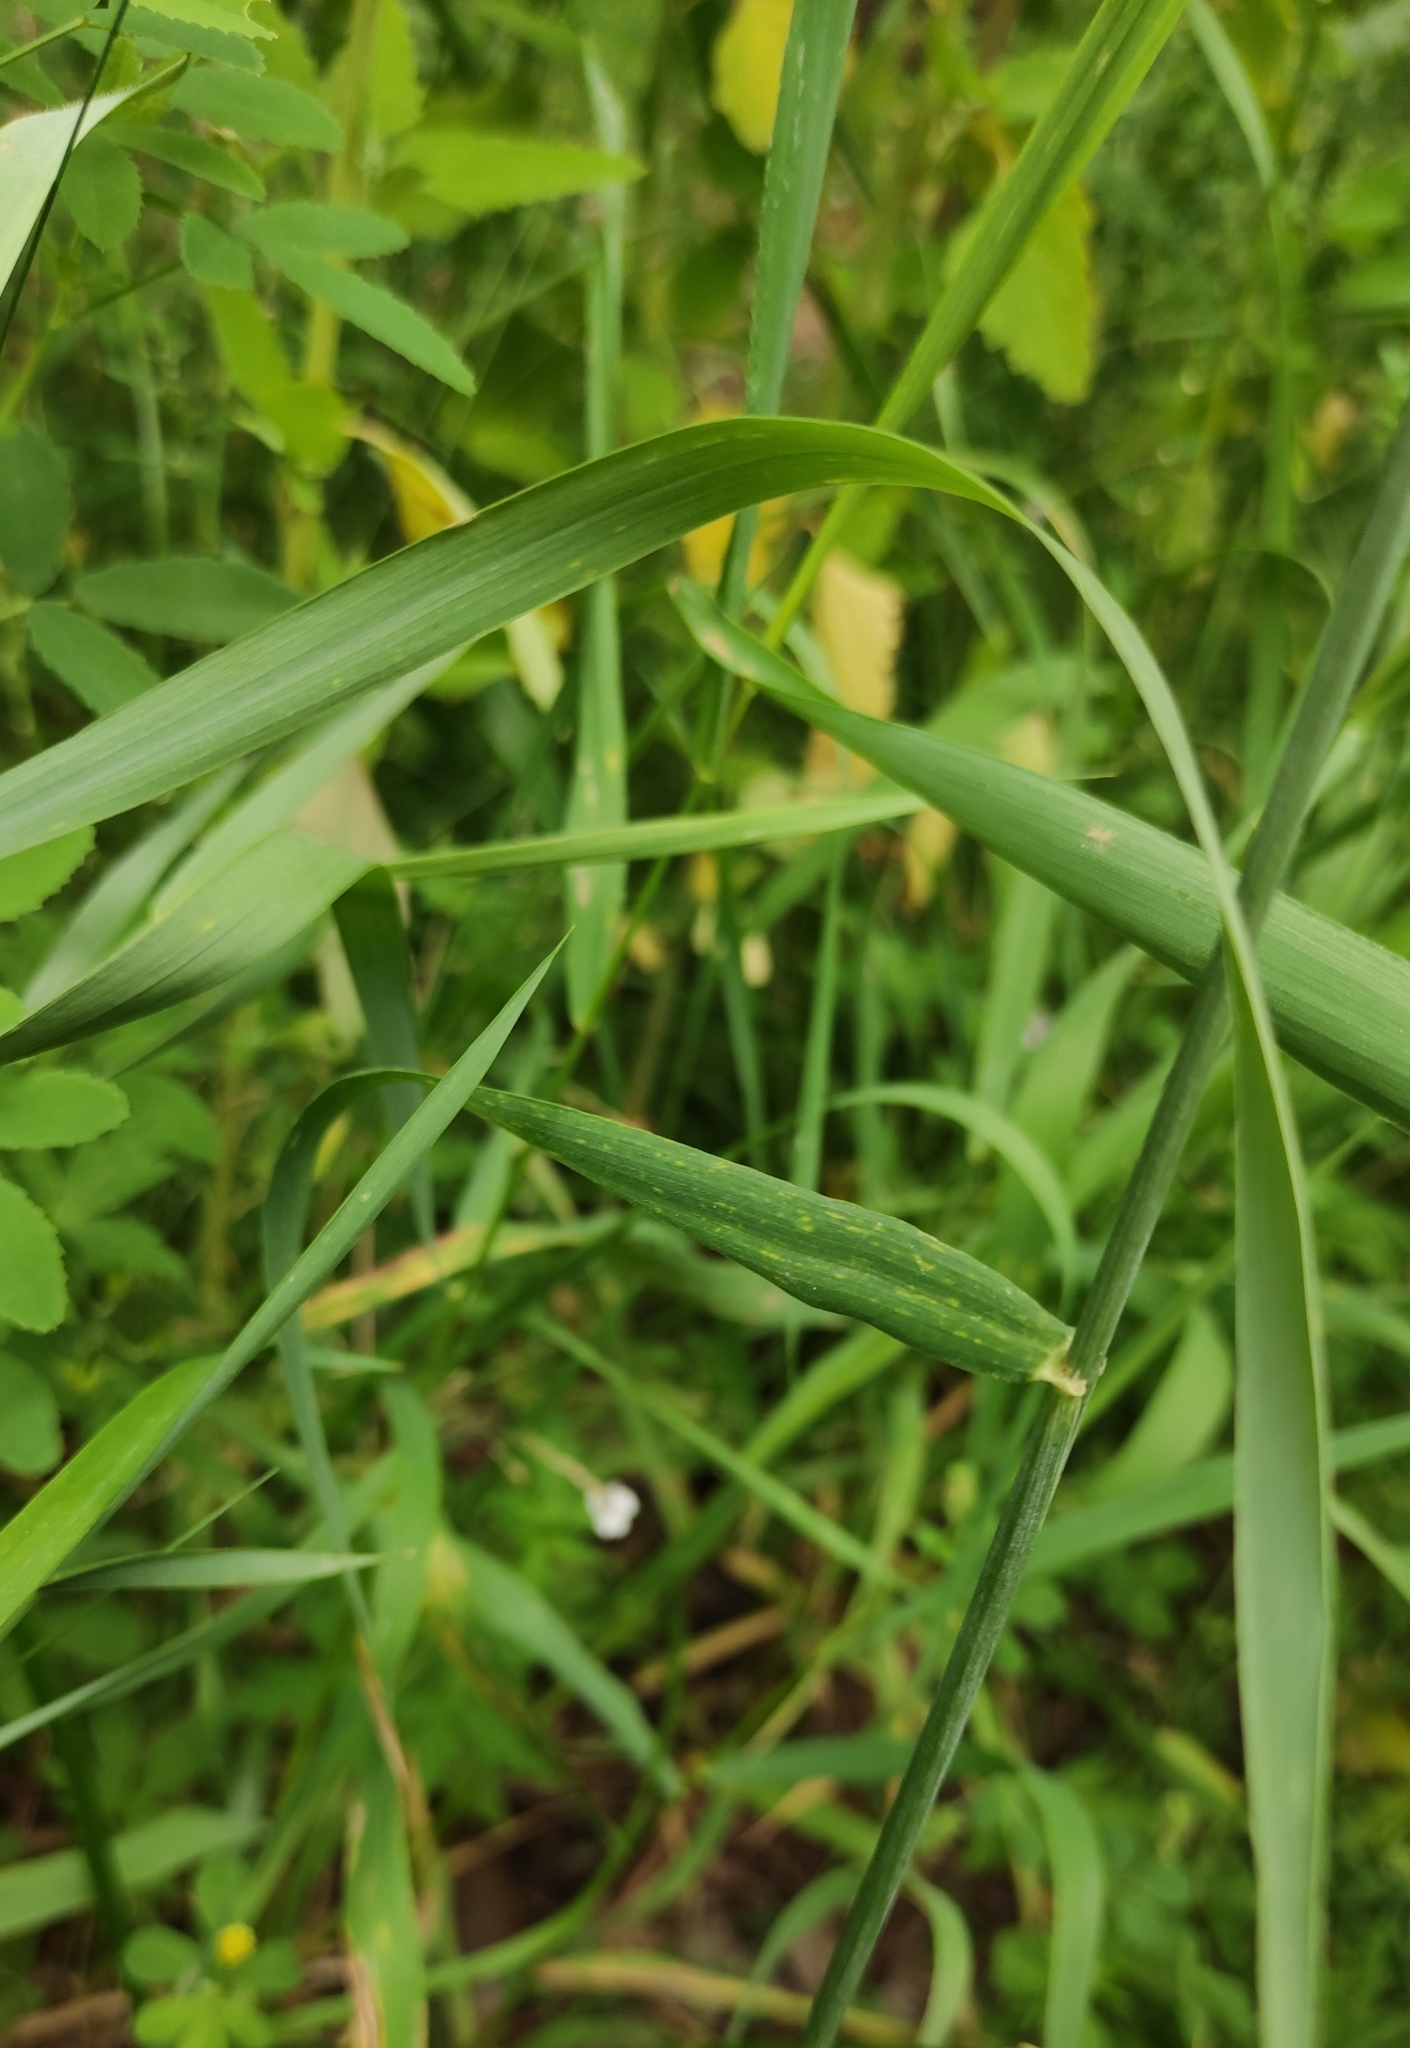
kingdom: Plantae
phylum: Tracheophyta
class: Liliopsida
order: Poales
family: Poaceae
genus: Triticum
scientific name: Triticum aestivum
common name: Common wheat
